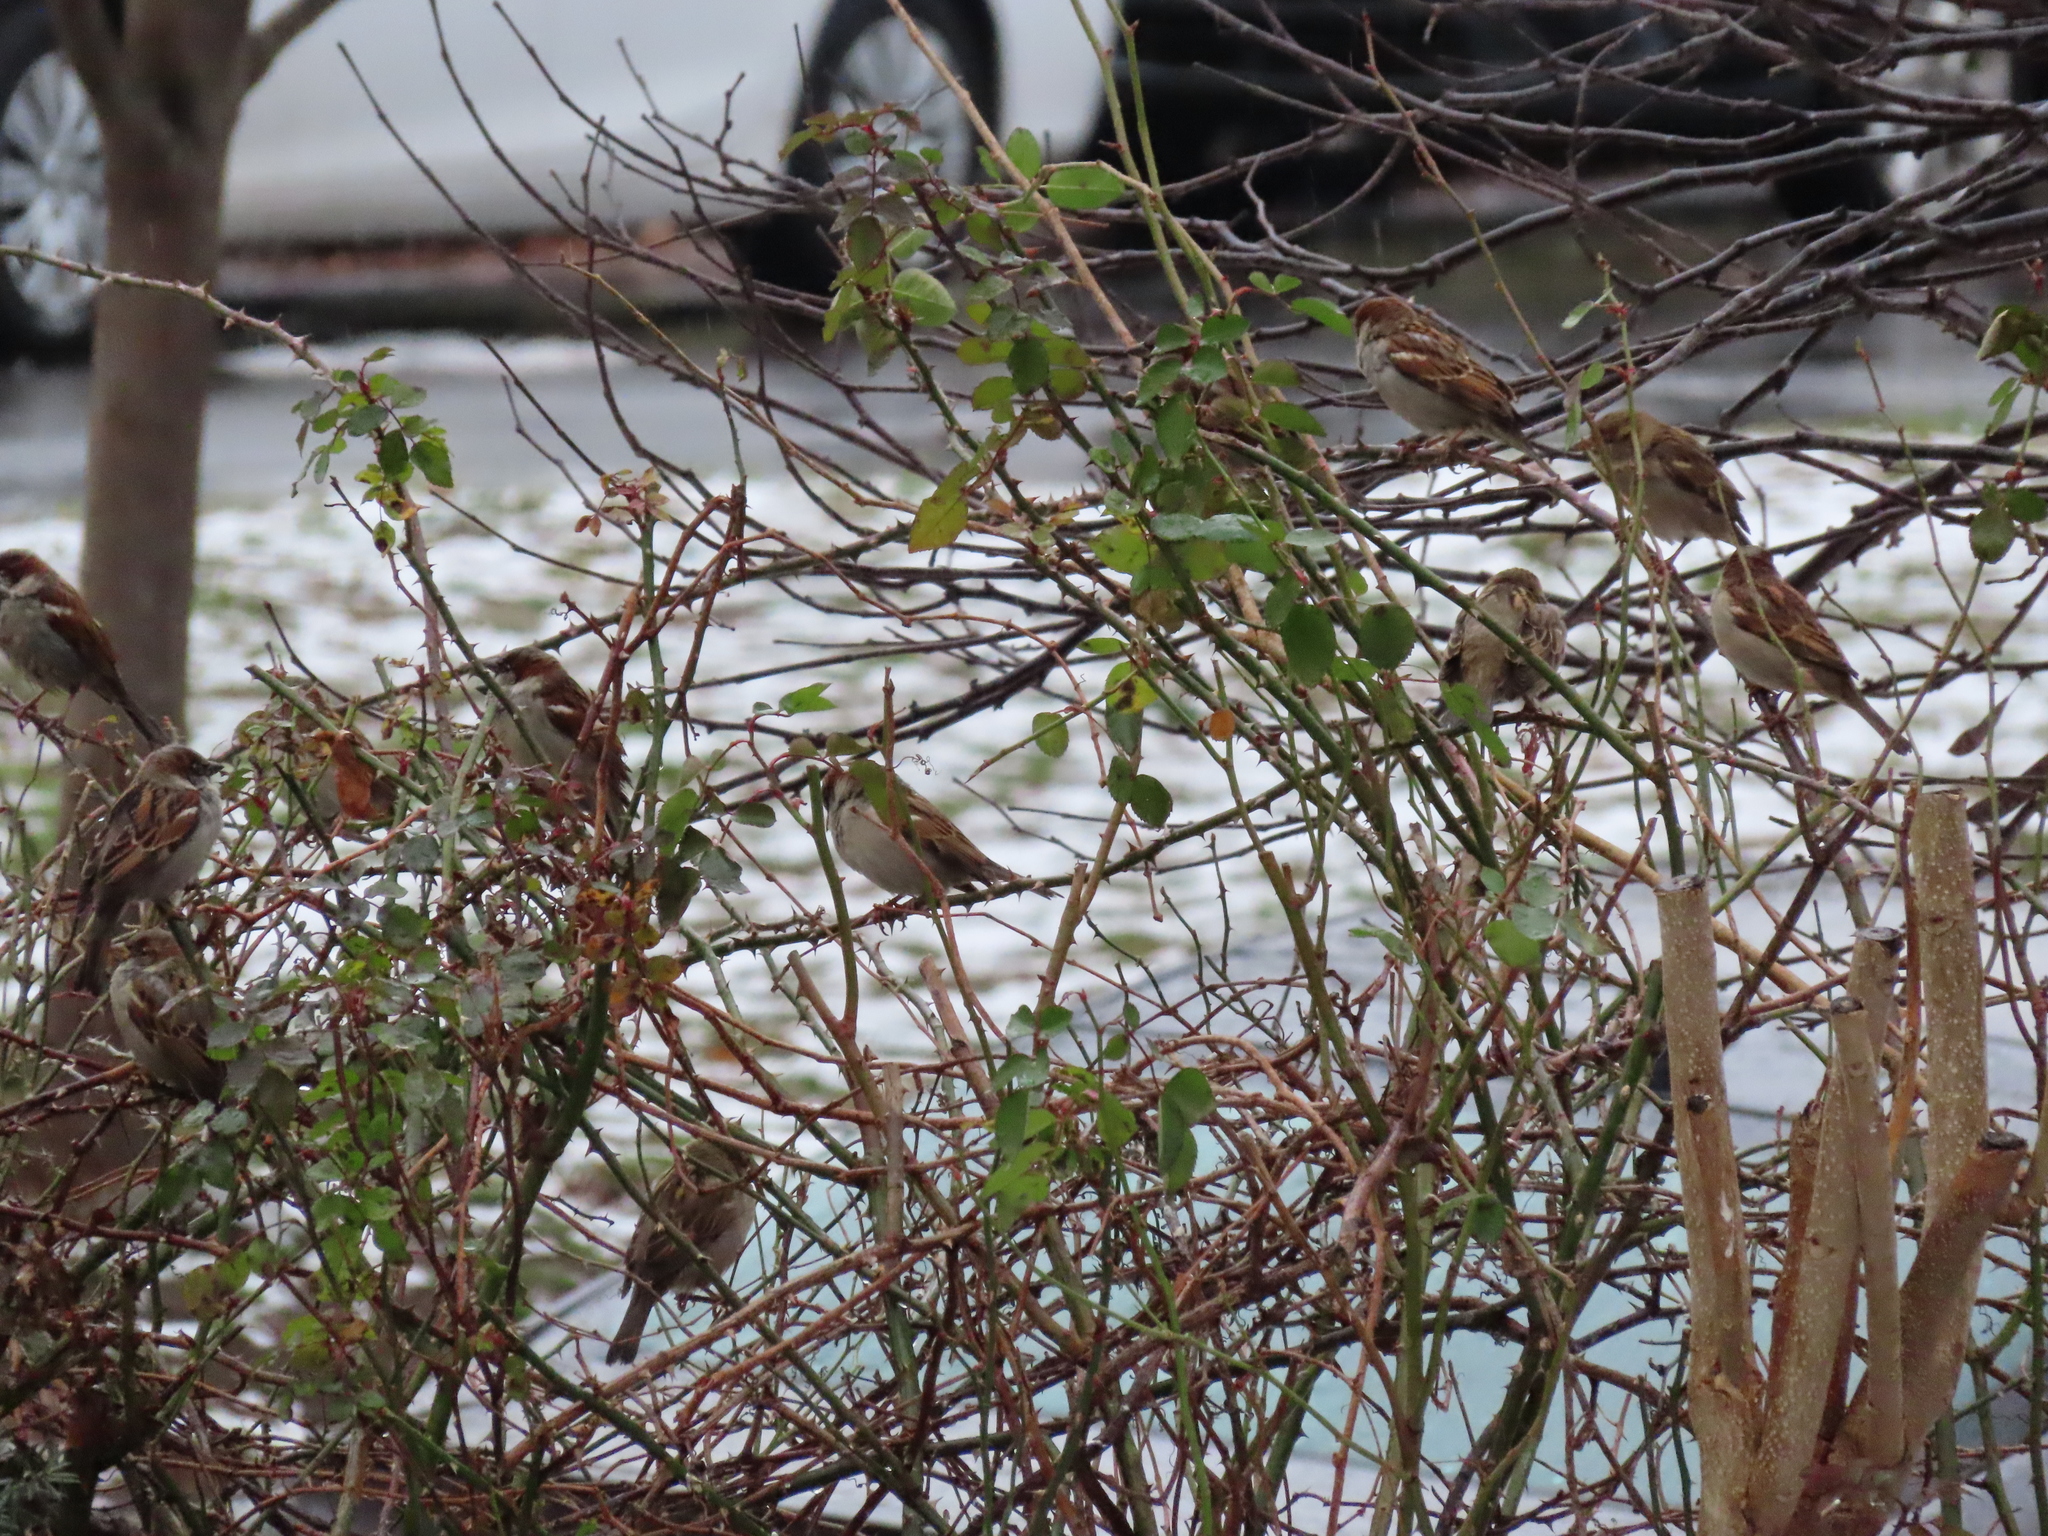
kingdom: Animalia
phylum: Chordata
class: Aves
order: Passeriformes
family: Passeridae
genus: Passer
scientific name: Passer domesticus
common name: House sparrow
